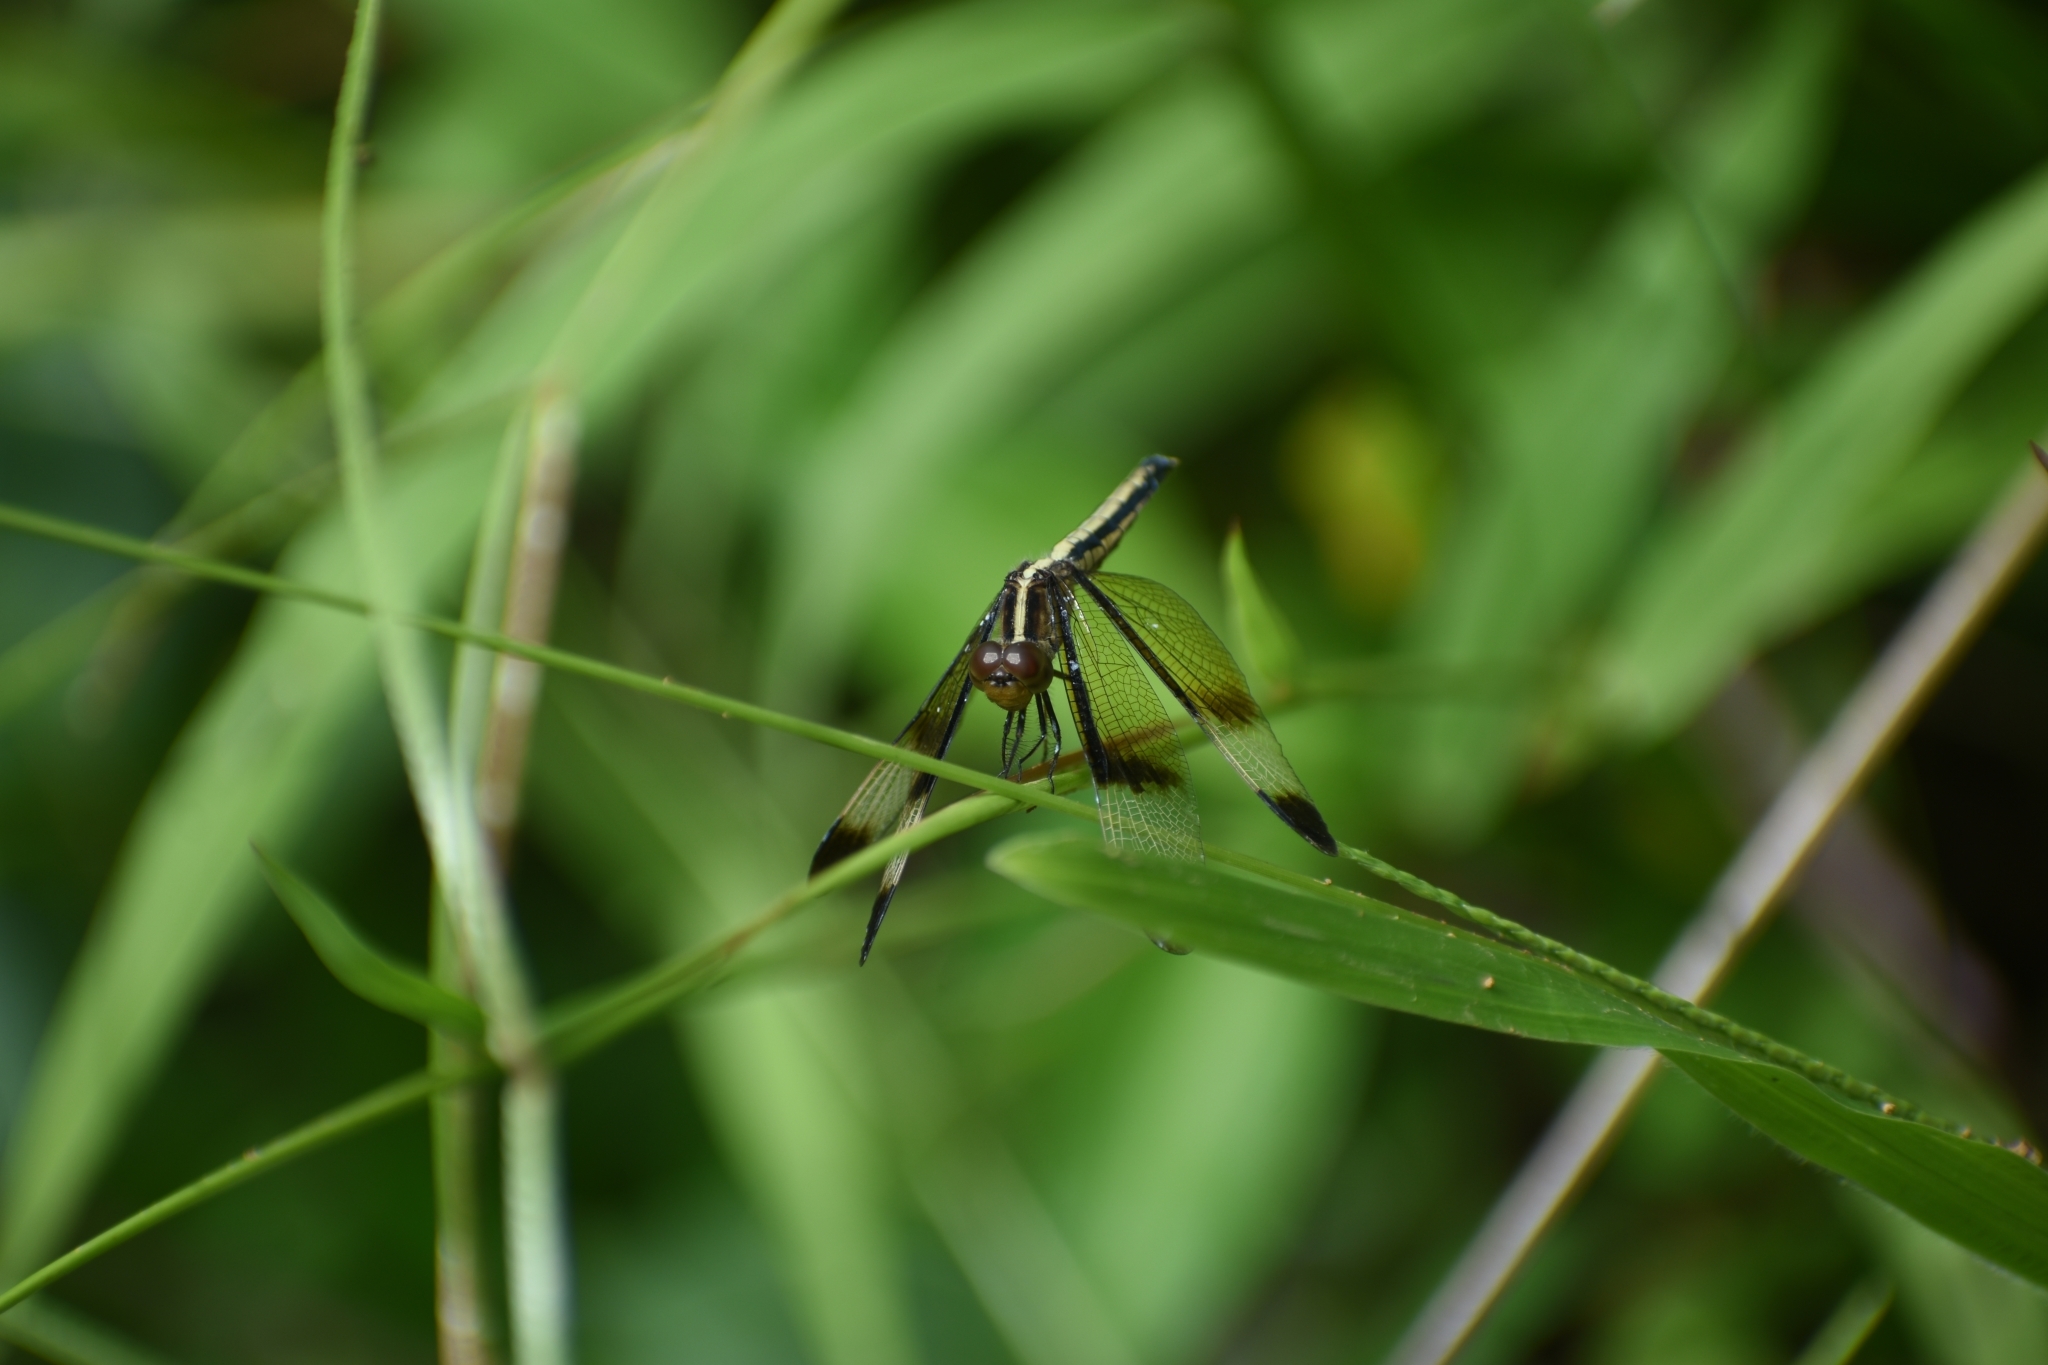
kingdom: Animalia
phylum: Arthropoda
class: Insecta
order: Odonata
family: Libellulidae
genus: Neurothemis
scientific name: Neurothemis tullia
